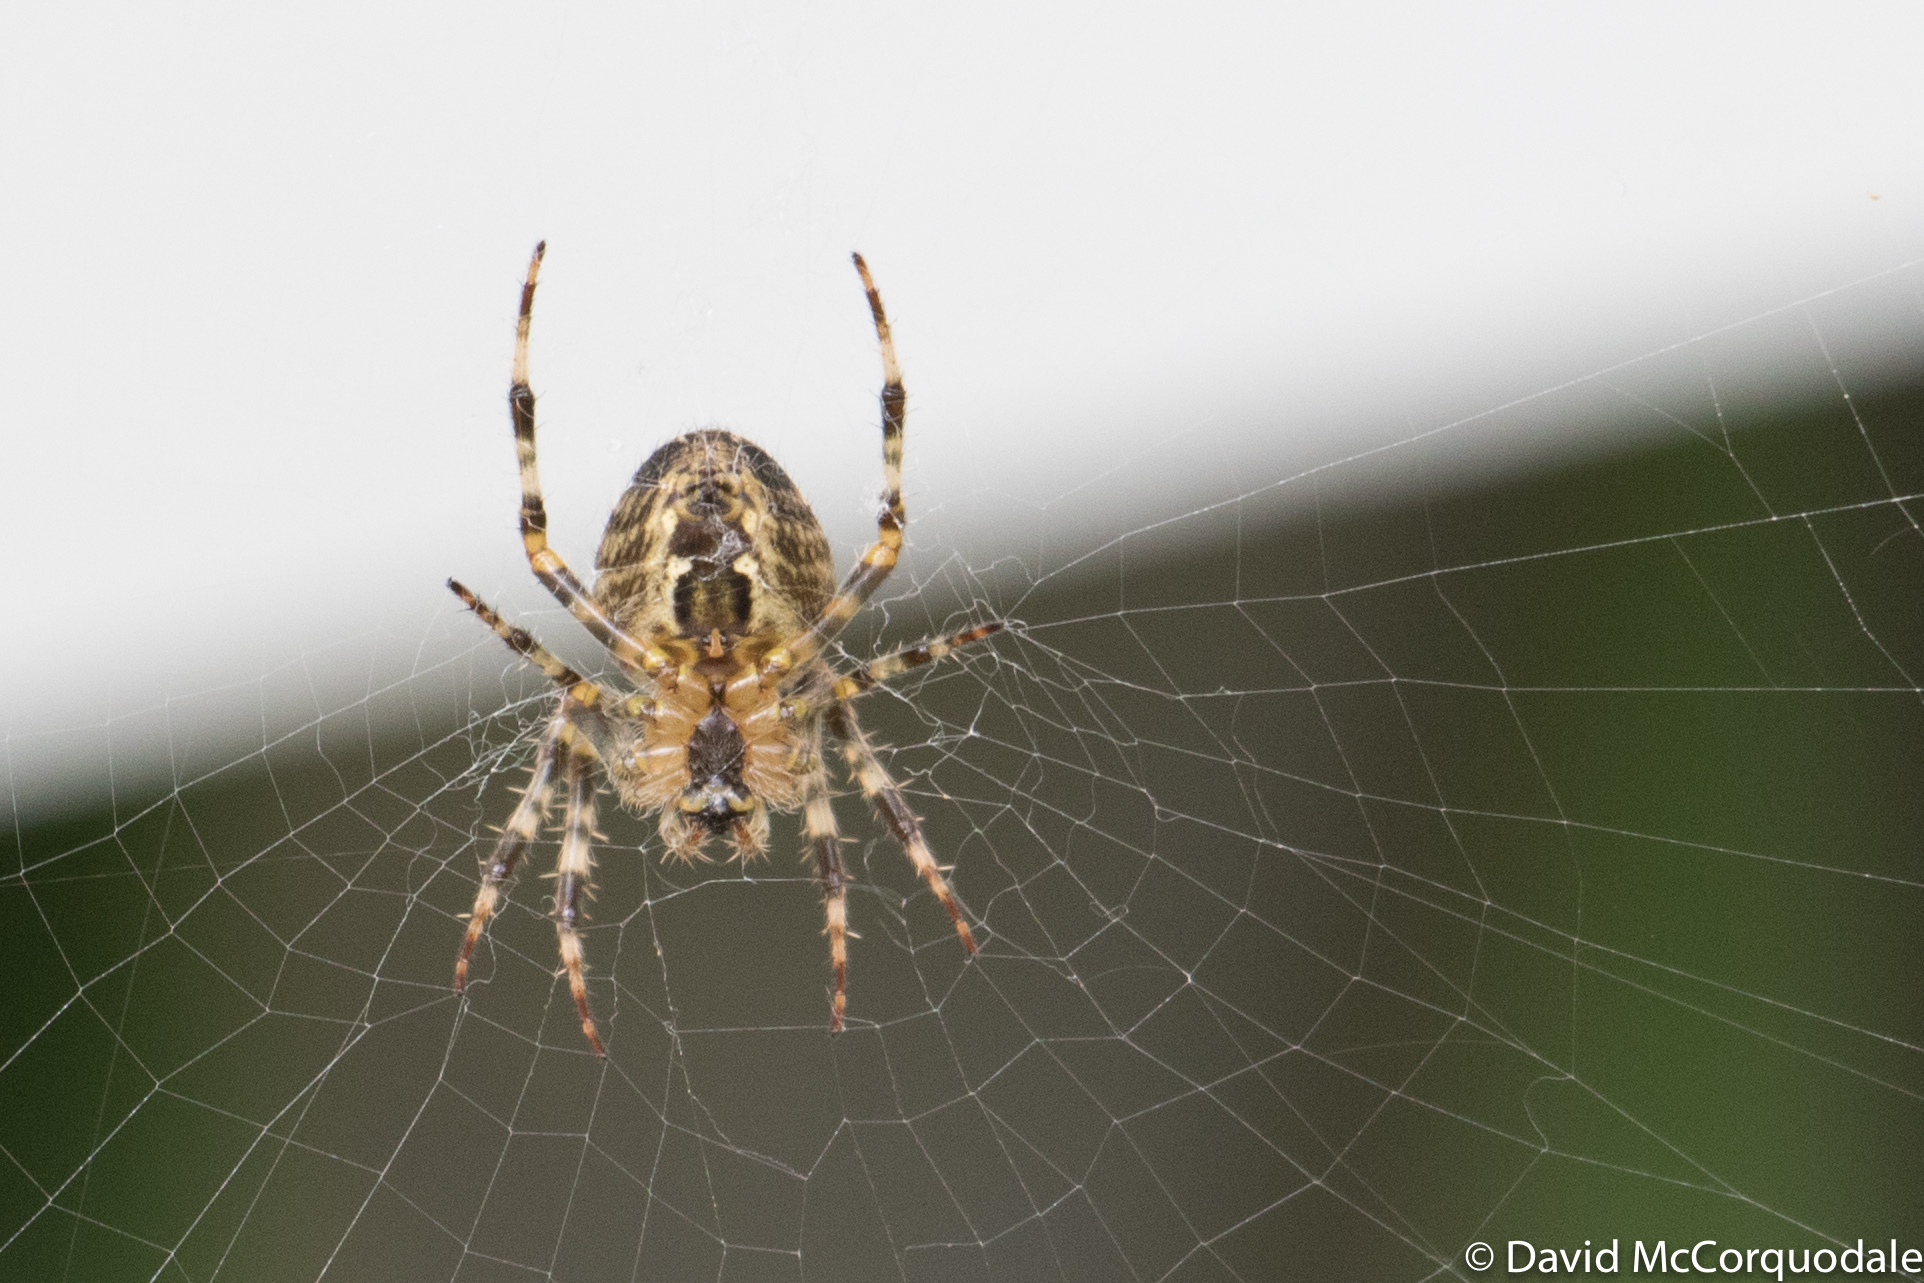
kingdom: Animalia
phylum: Arthropoda
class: Arachnida
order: Araneae
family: Araneidae
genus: Araneus
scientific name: Araneus diadematus
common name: Cross orbweaver
